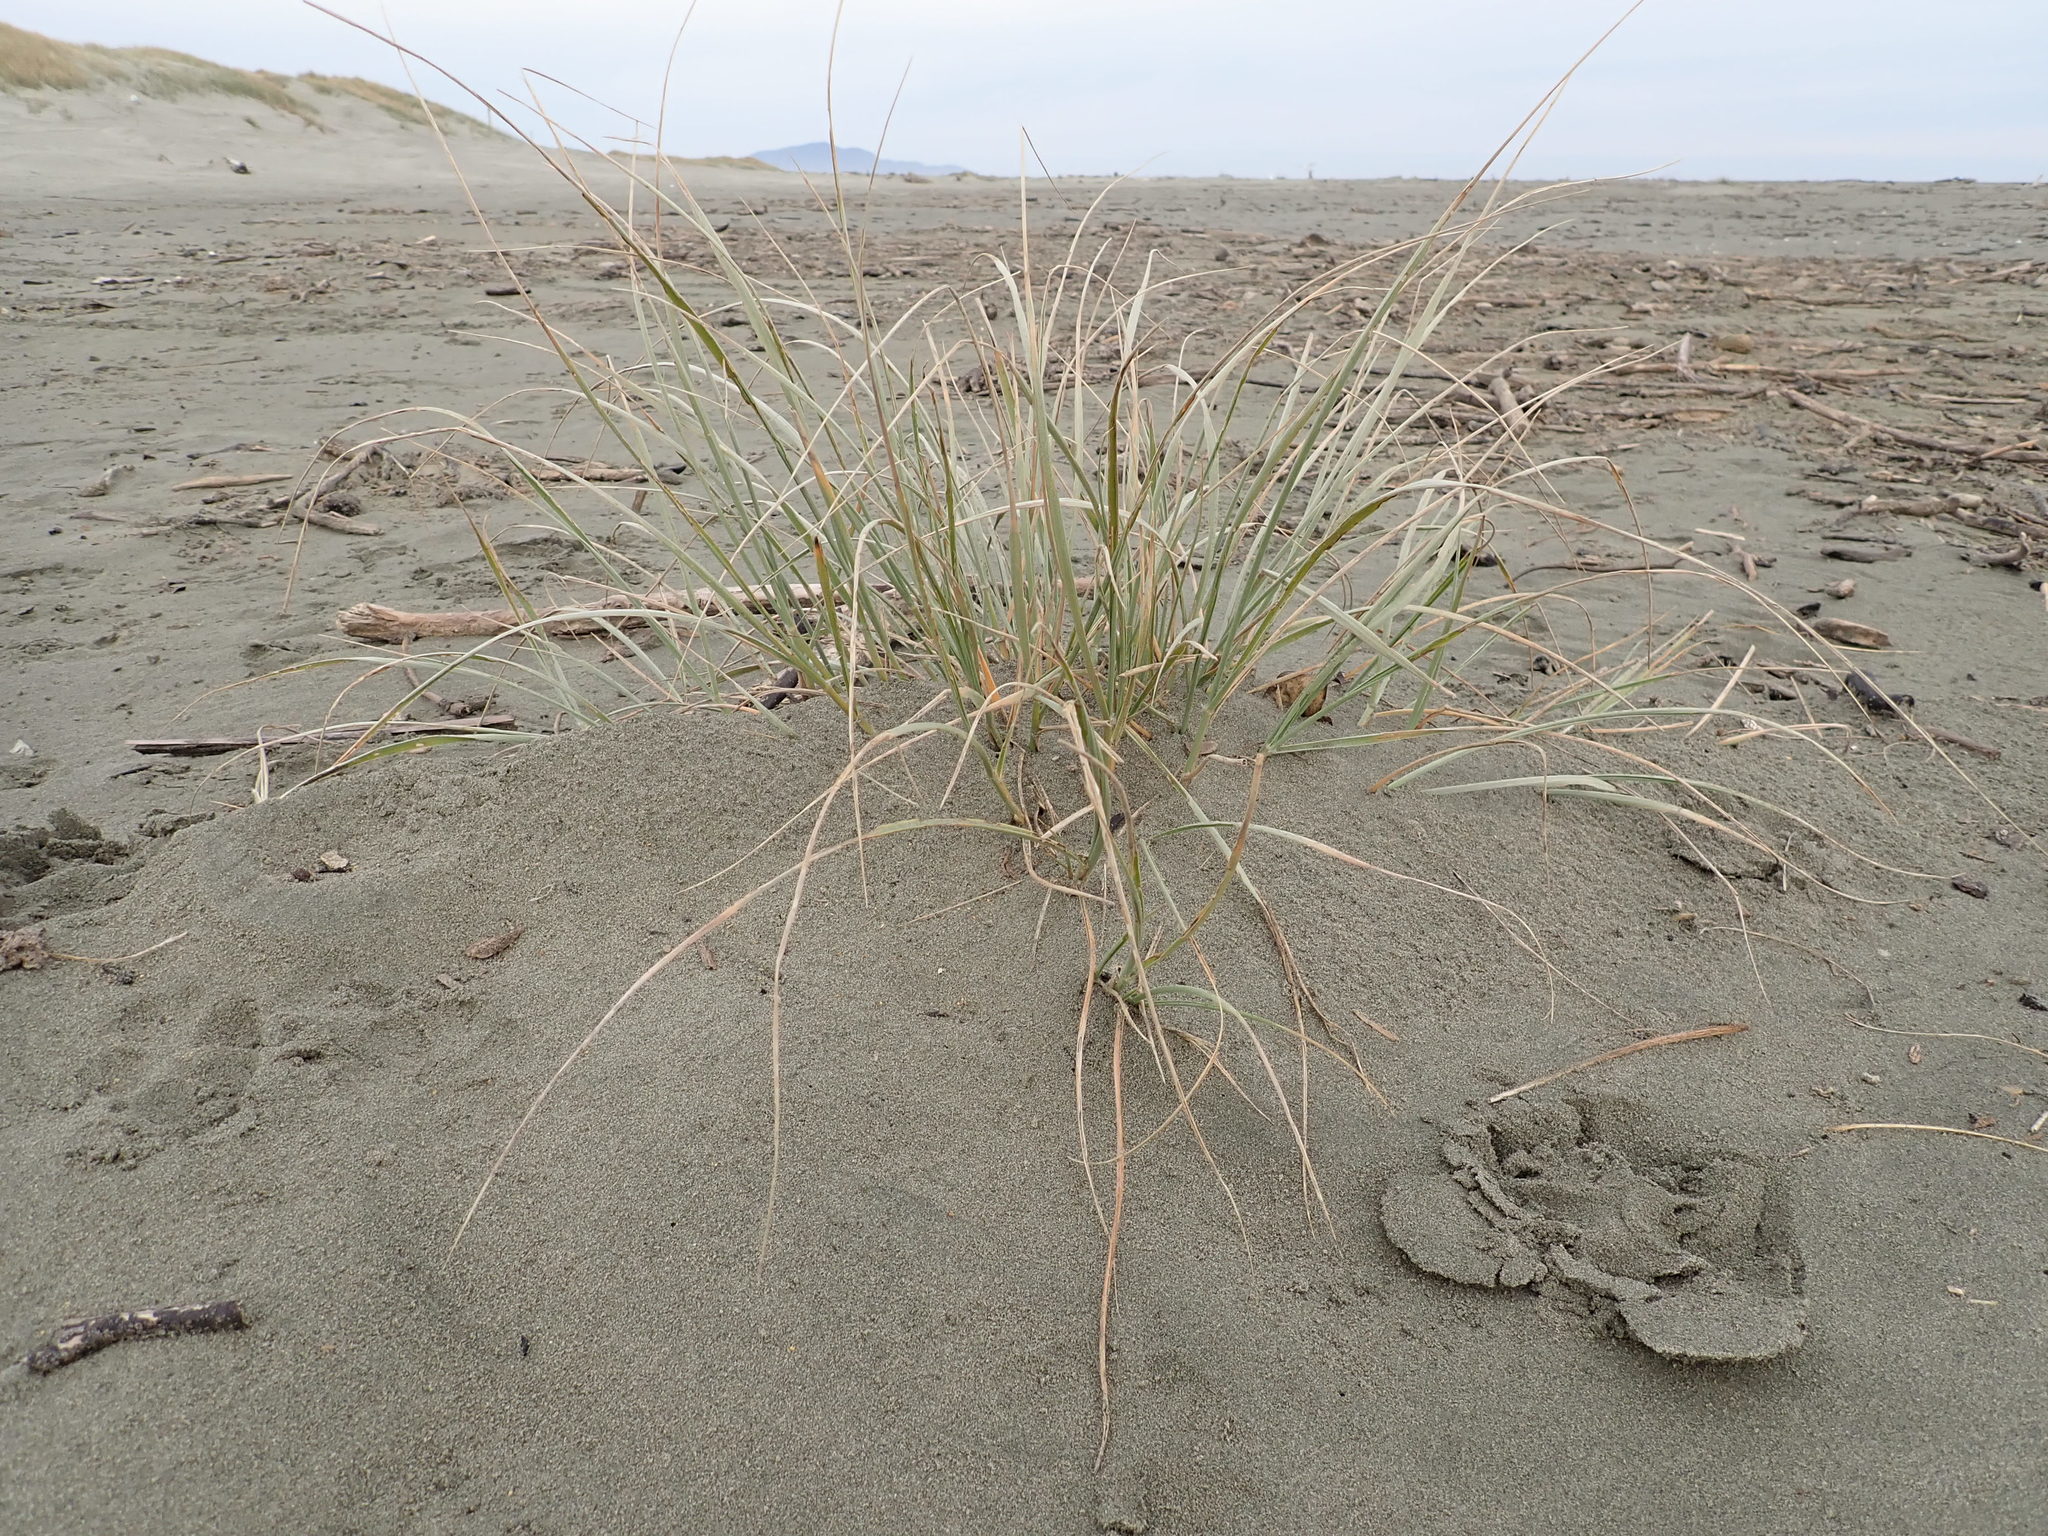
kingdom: Plantae
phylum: Tracheophyta
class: Liliopsida
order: Poales
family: Poaceae
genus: Spinifex
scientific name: Spinifex sericeus
